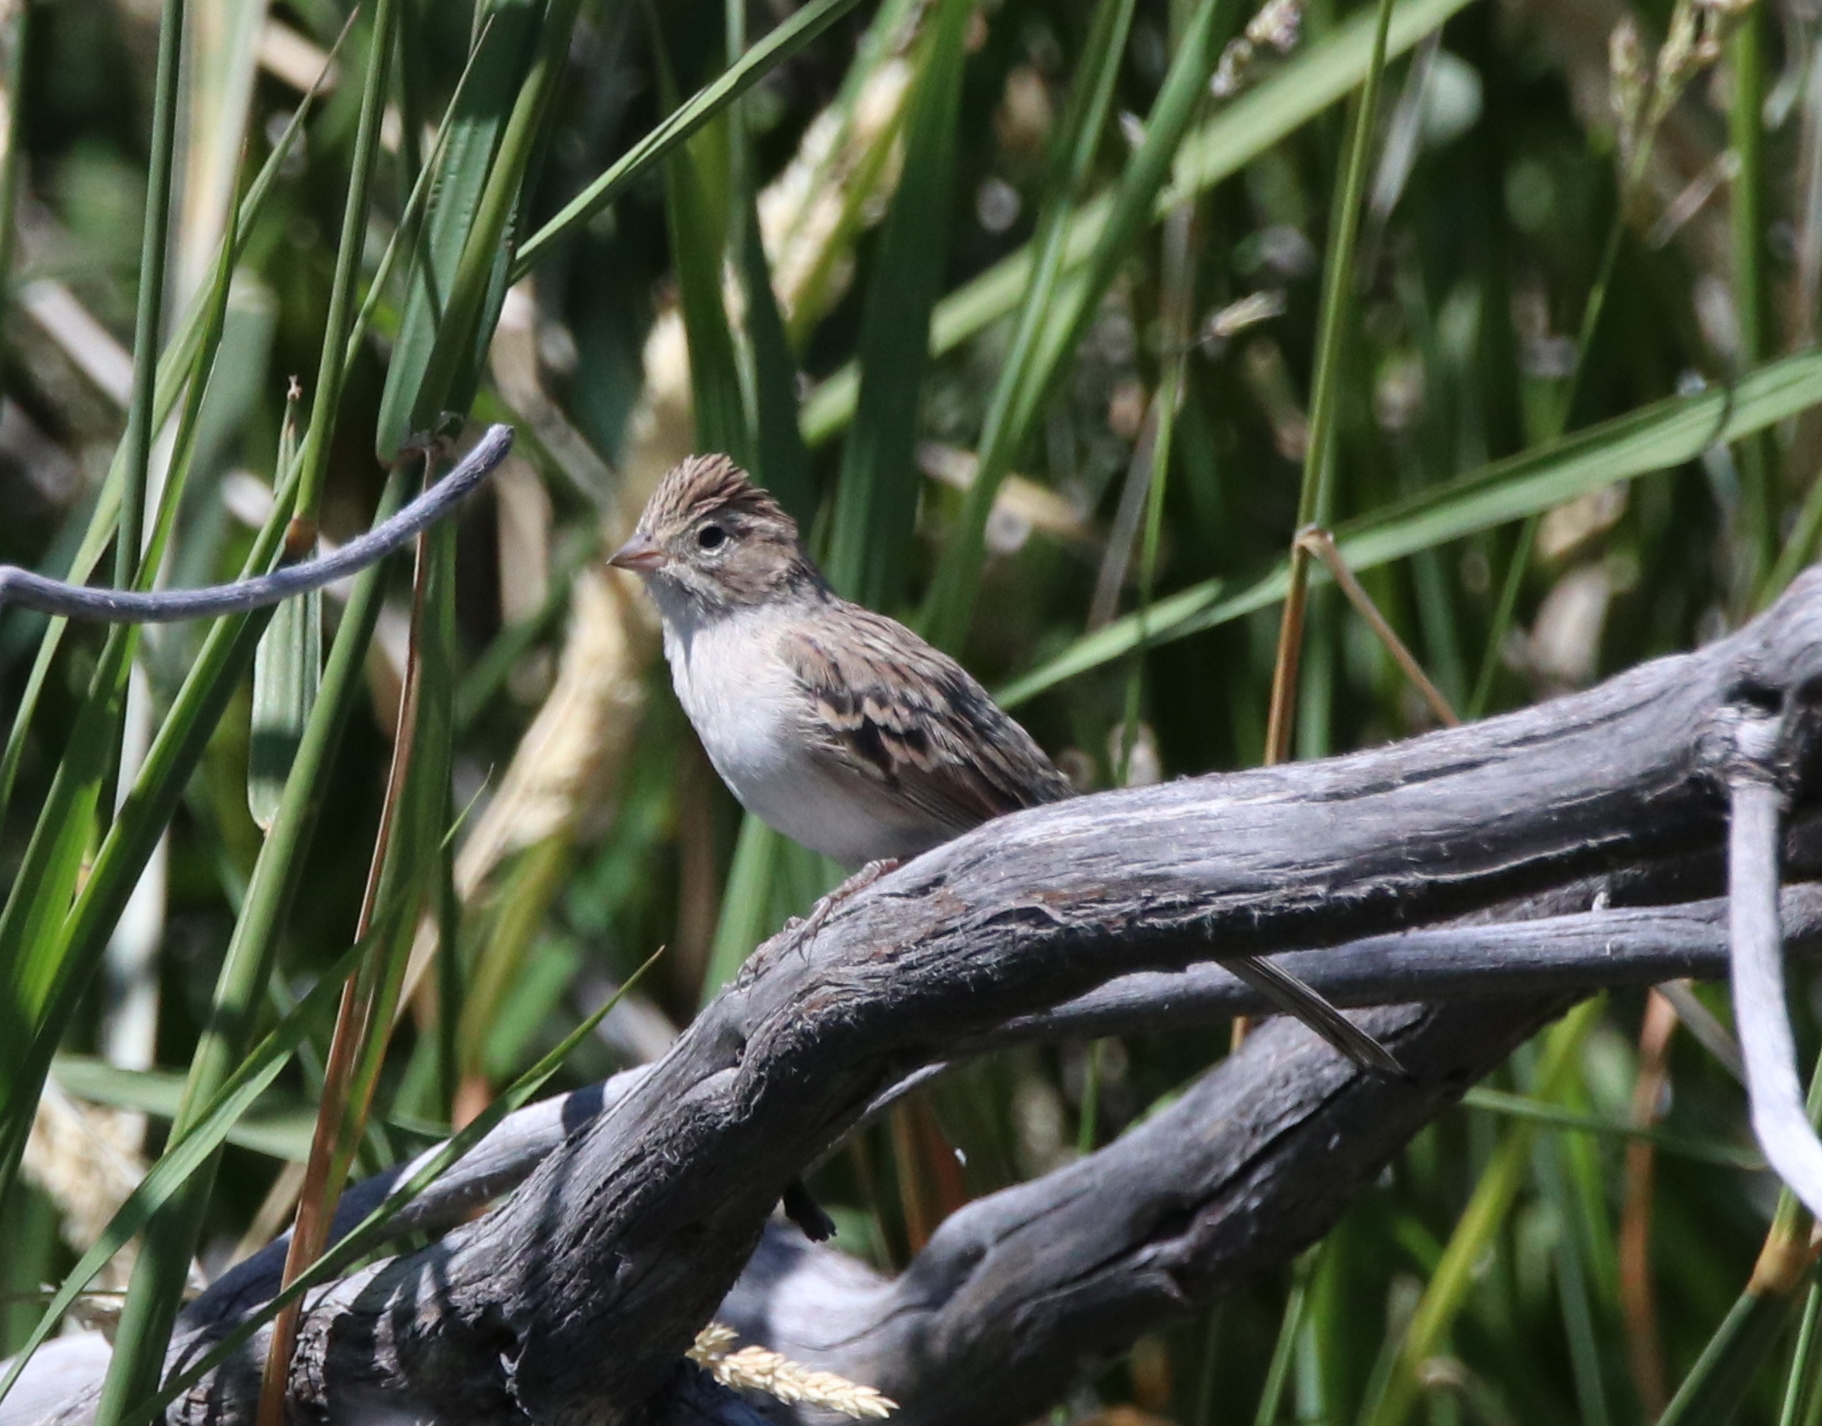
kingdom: Animalia
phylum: Chordata
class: Aves
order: Passeriformes
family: Passerellidae
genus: Spizella
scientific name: Spizella breweri
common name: Brewer's sparrow
